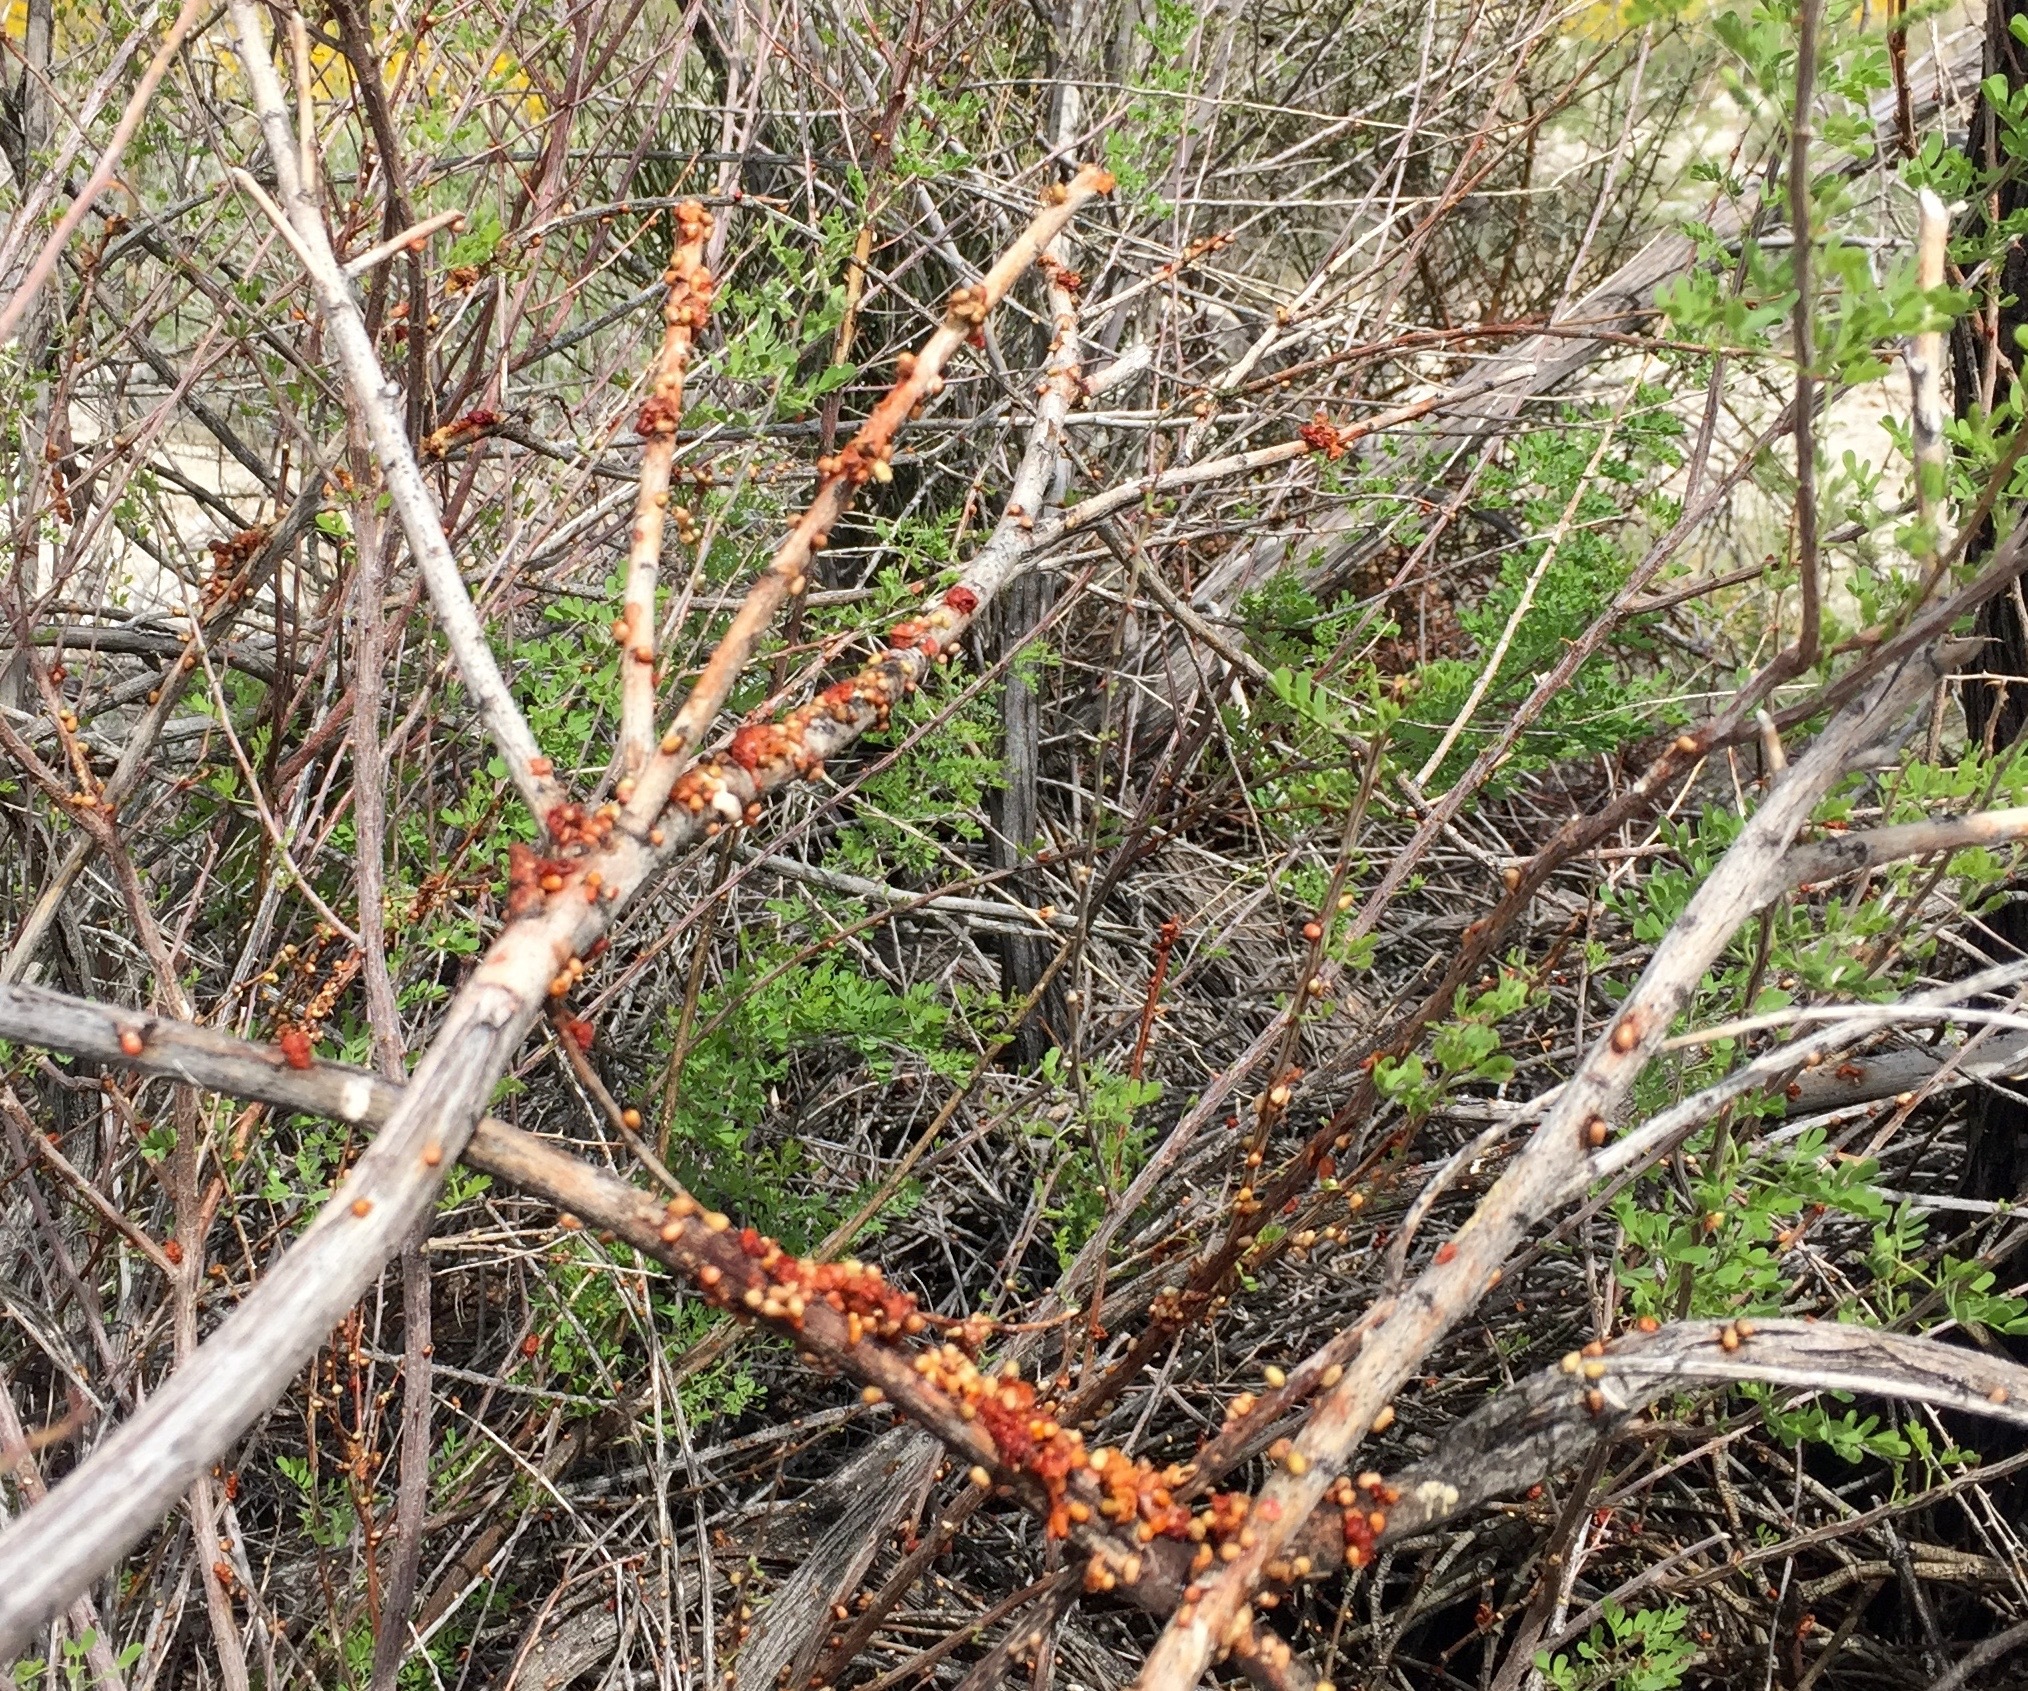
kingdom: Animalia
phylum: Chordata
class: Aves
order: Passeriformes
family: Ptilogonatidae
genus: Phainopepla
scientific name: Phainopepla nitens
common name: Phainopepla
